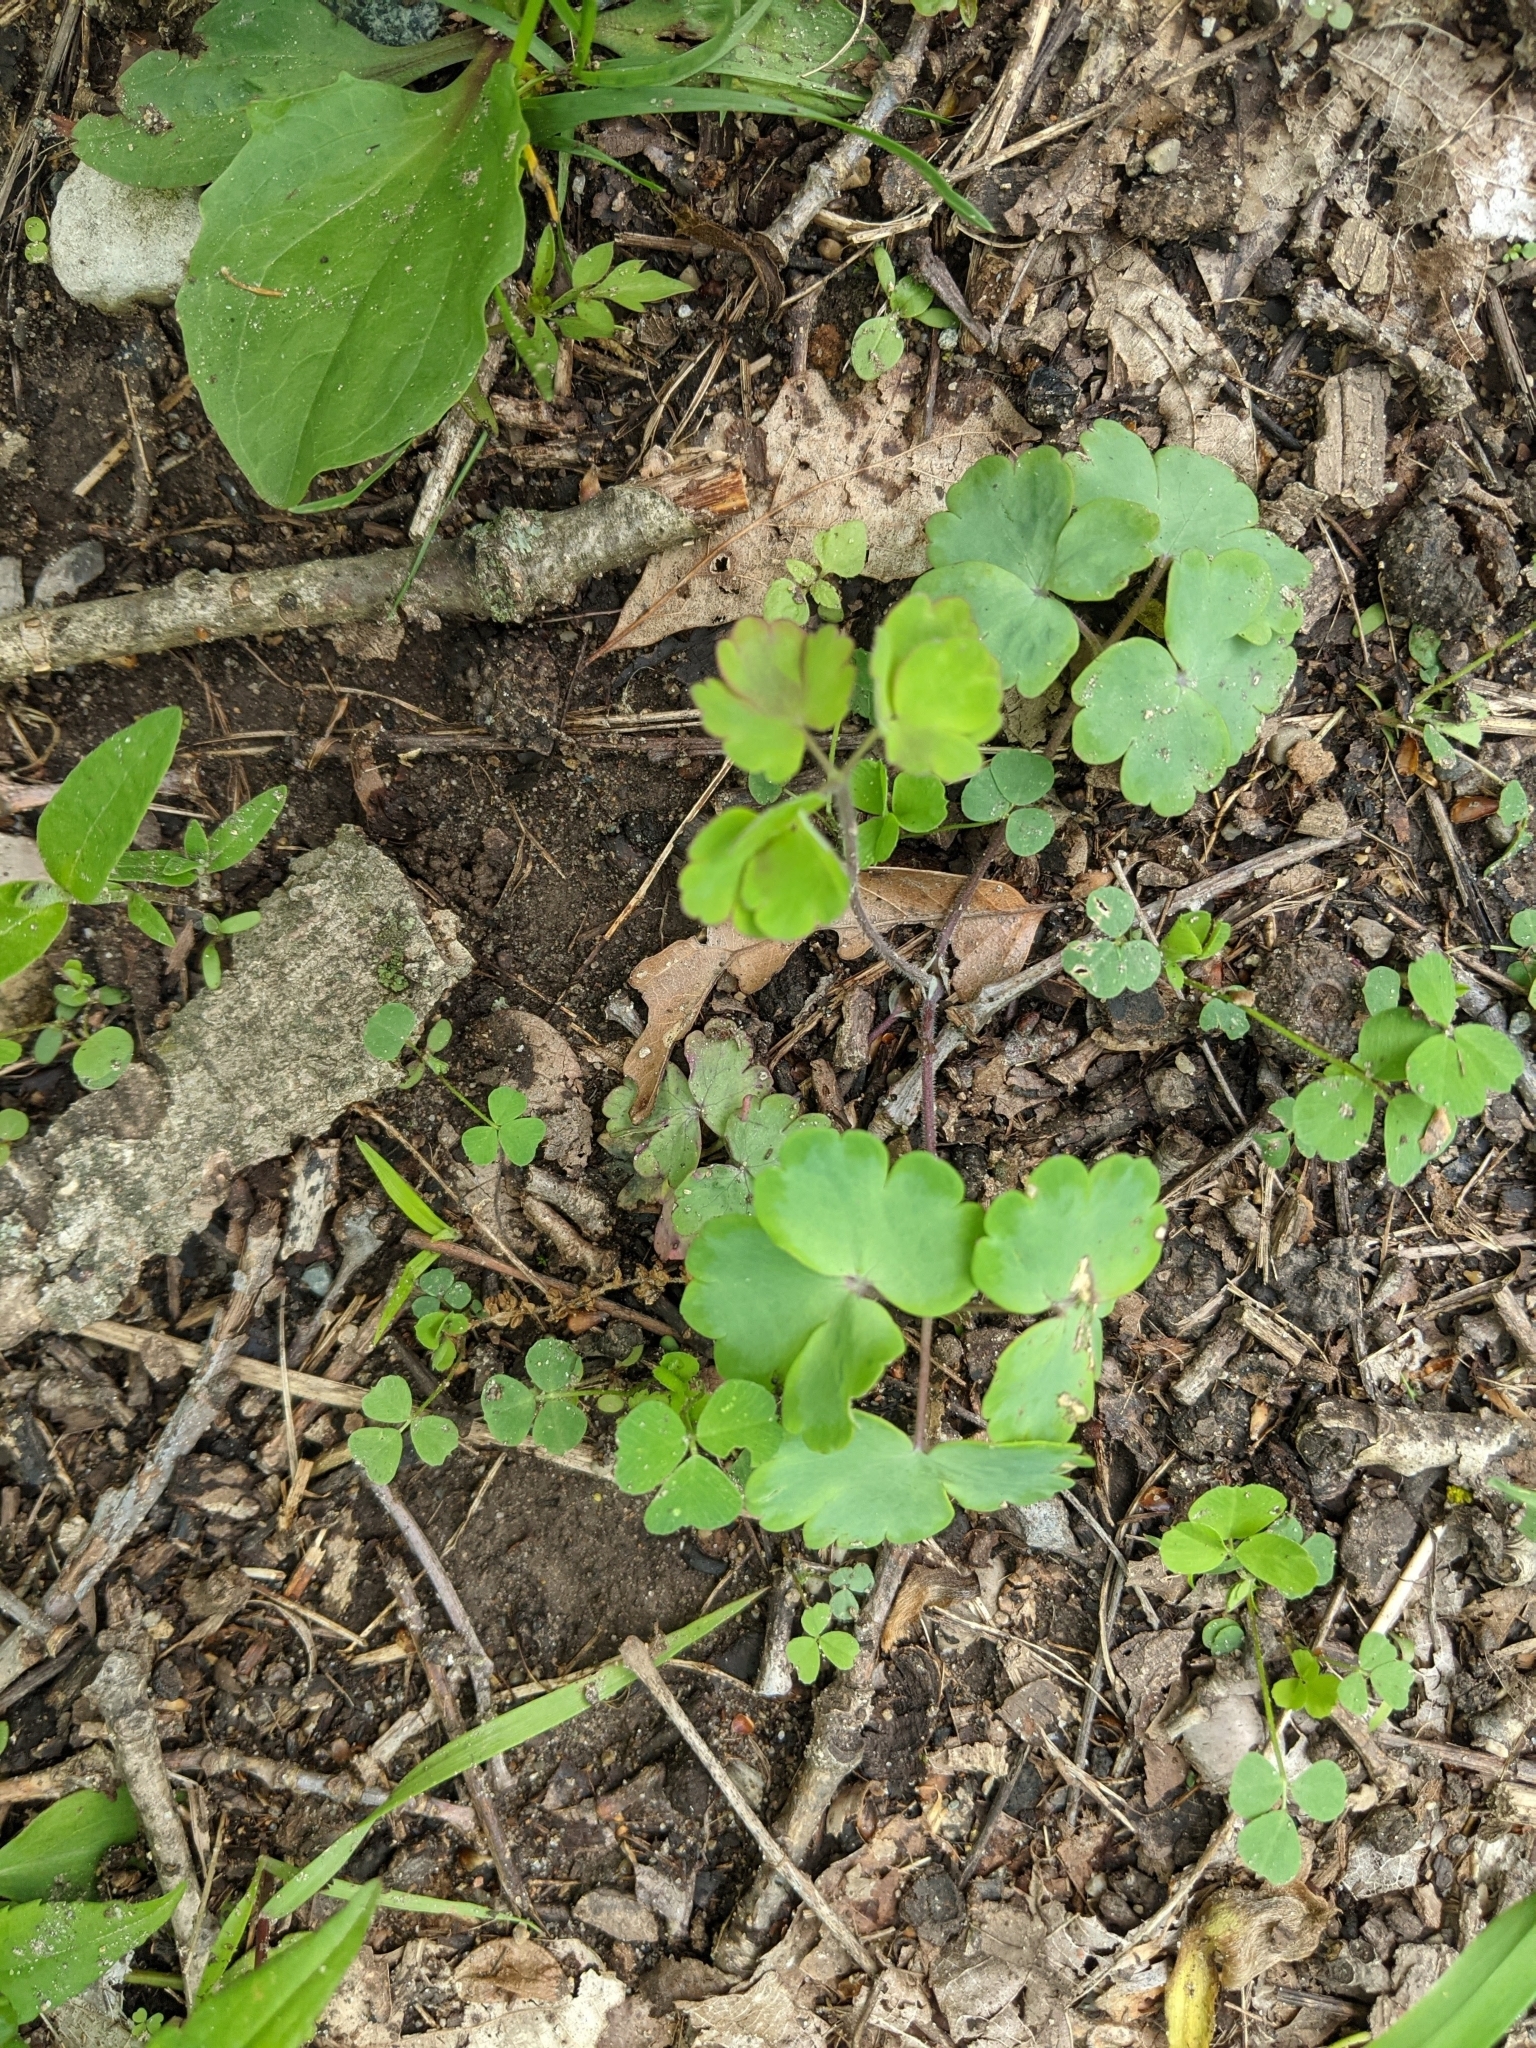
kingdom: Plantae
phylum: Tracheophyta
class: Magnoliopsida
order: Ranunculales
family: Ranunculaceae
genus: Aquilegia
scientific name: Aquilegia canadensis
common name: American columbine
